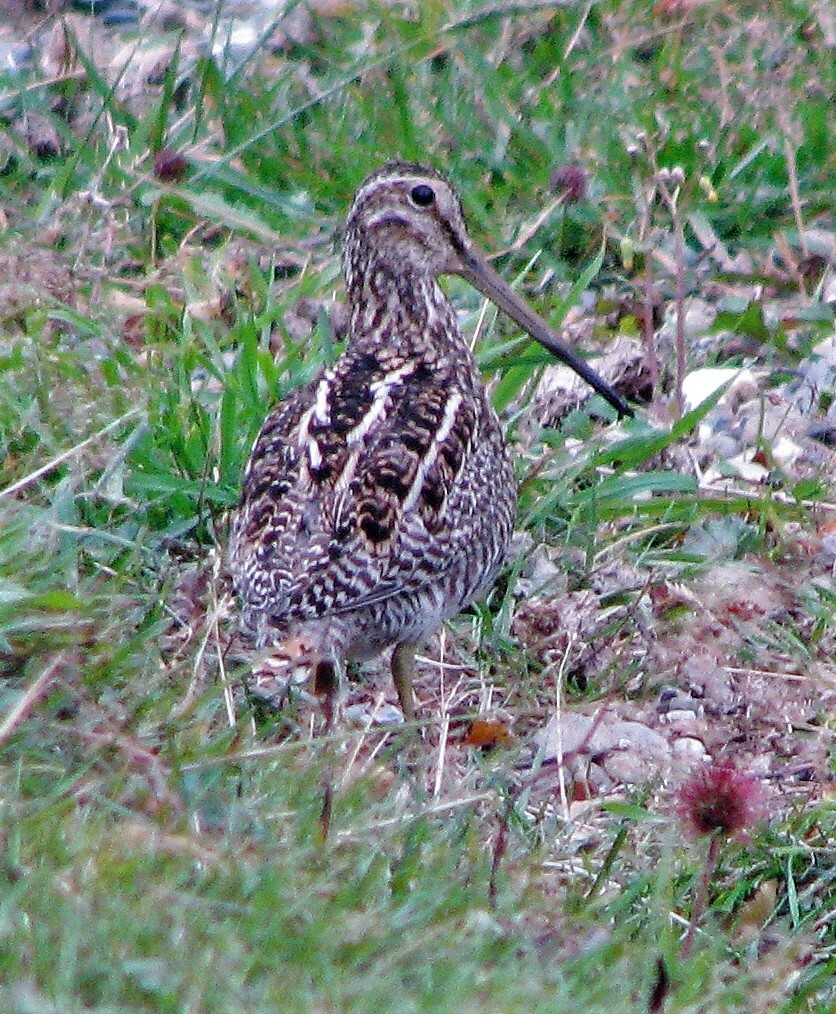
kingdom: Animalia
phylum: Chordata
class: Aves
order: Charadriiformes
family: Scolopacidae
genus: Gallinago
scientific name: Gallinago magellanica
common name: Magellanic snipe
